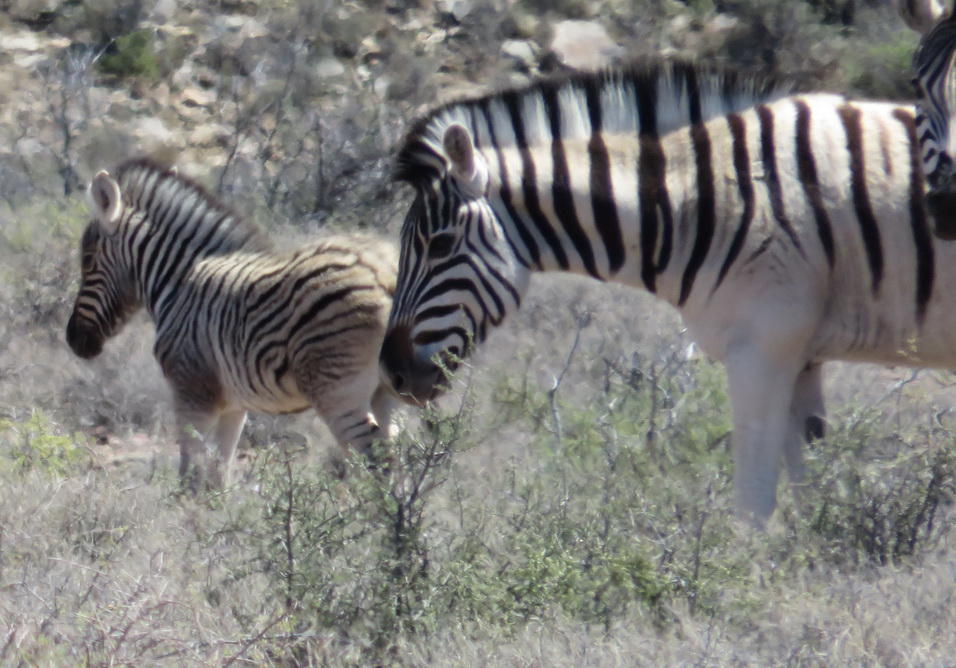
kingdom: Animalia
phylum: Chordata
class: Mammalia
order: Perissodactyla
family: Equidae
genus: Equus
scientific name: Equus quagga
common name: Plains zebra
